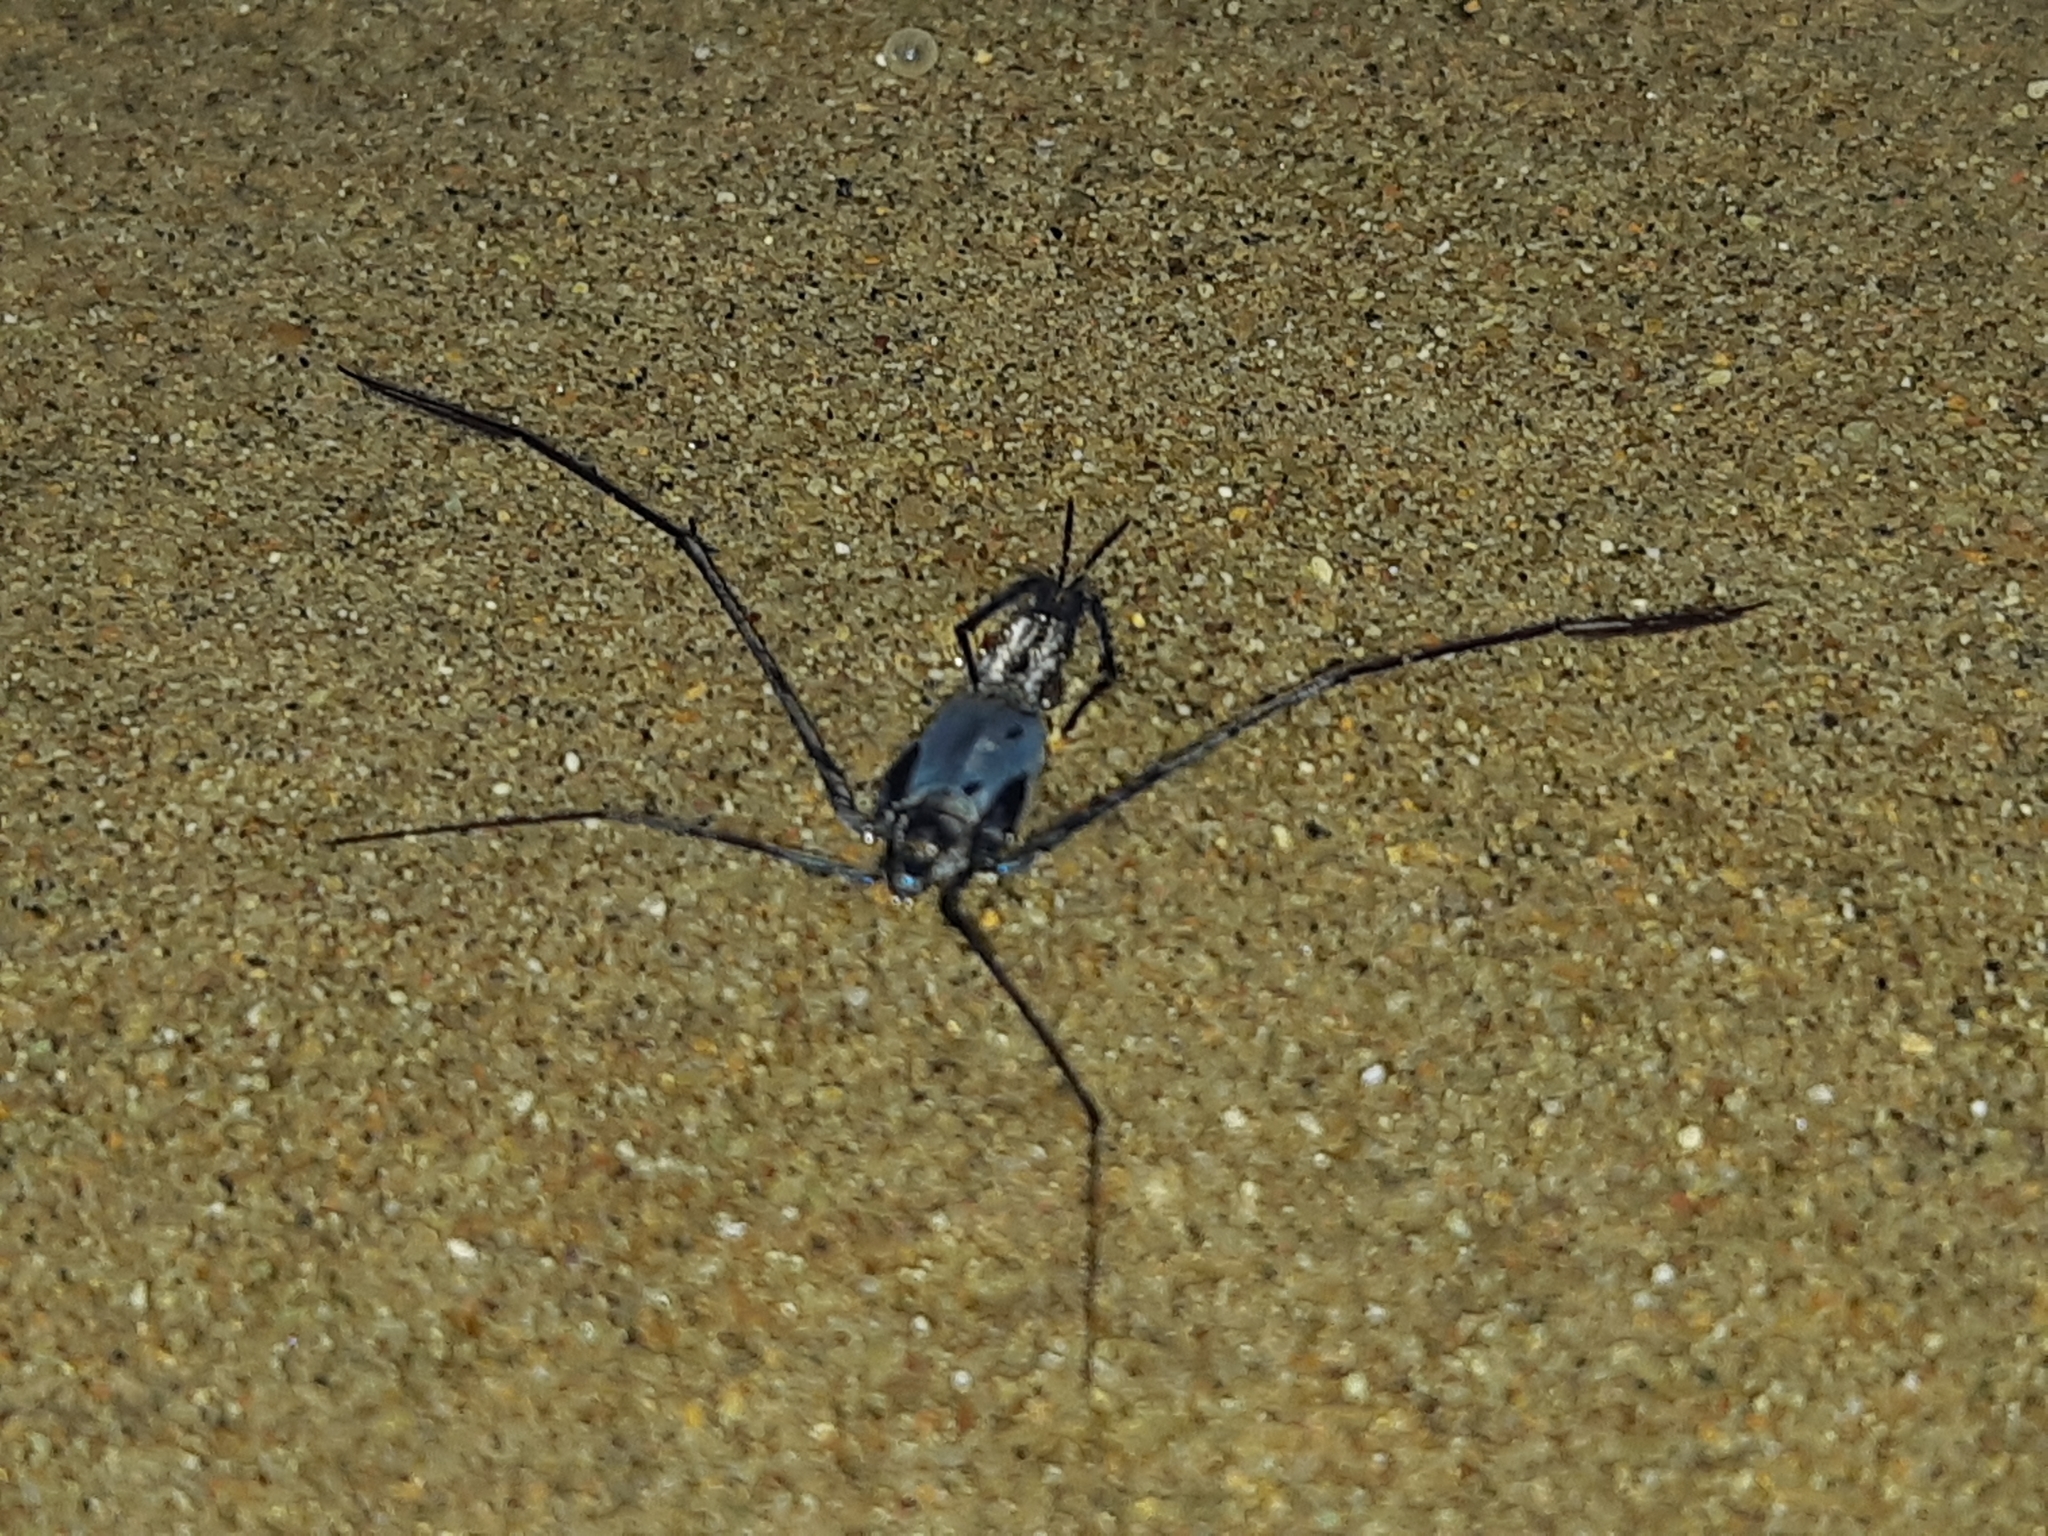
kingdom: Animalia
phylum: Arthropoda
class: Insecta
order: Hemiptera
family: Gerridae
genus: Halobates
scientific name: Halobates
